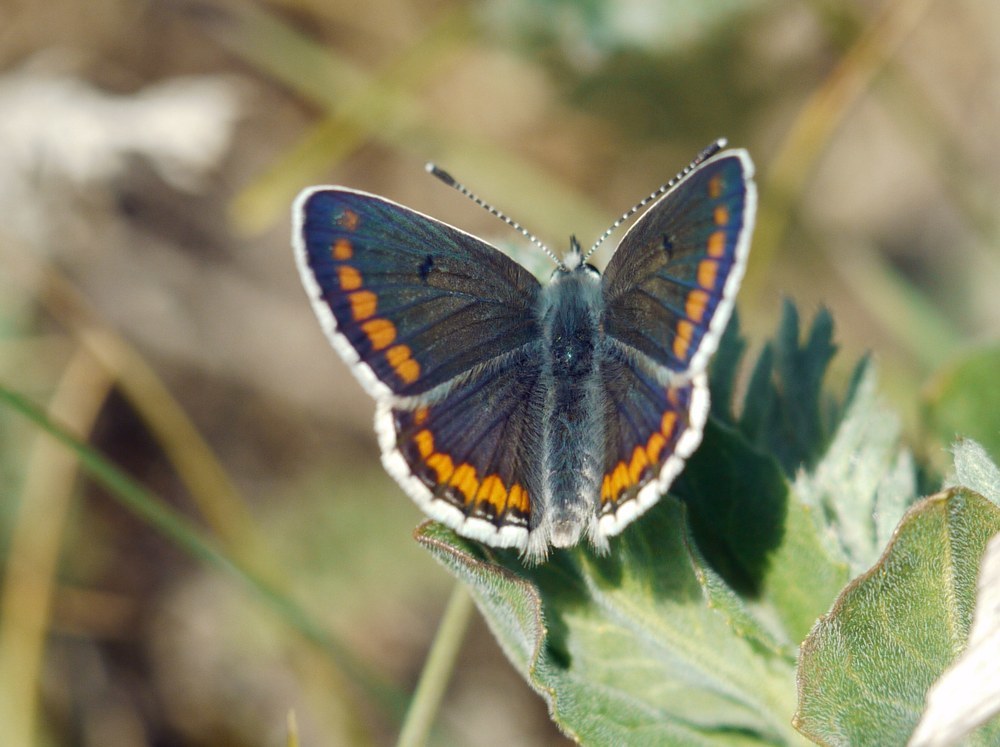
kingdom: Animalia
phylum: Arthropoda
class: Insecta
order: Lepidoptera
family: Lycaenidae
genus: Aricia
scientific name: Aricia agestis
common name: Brown argus
